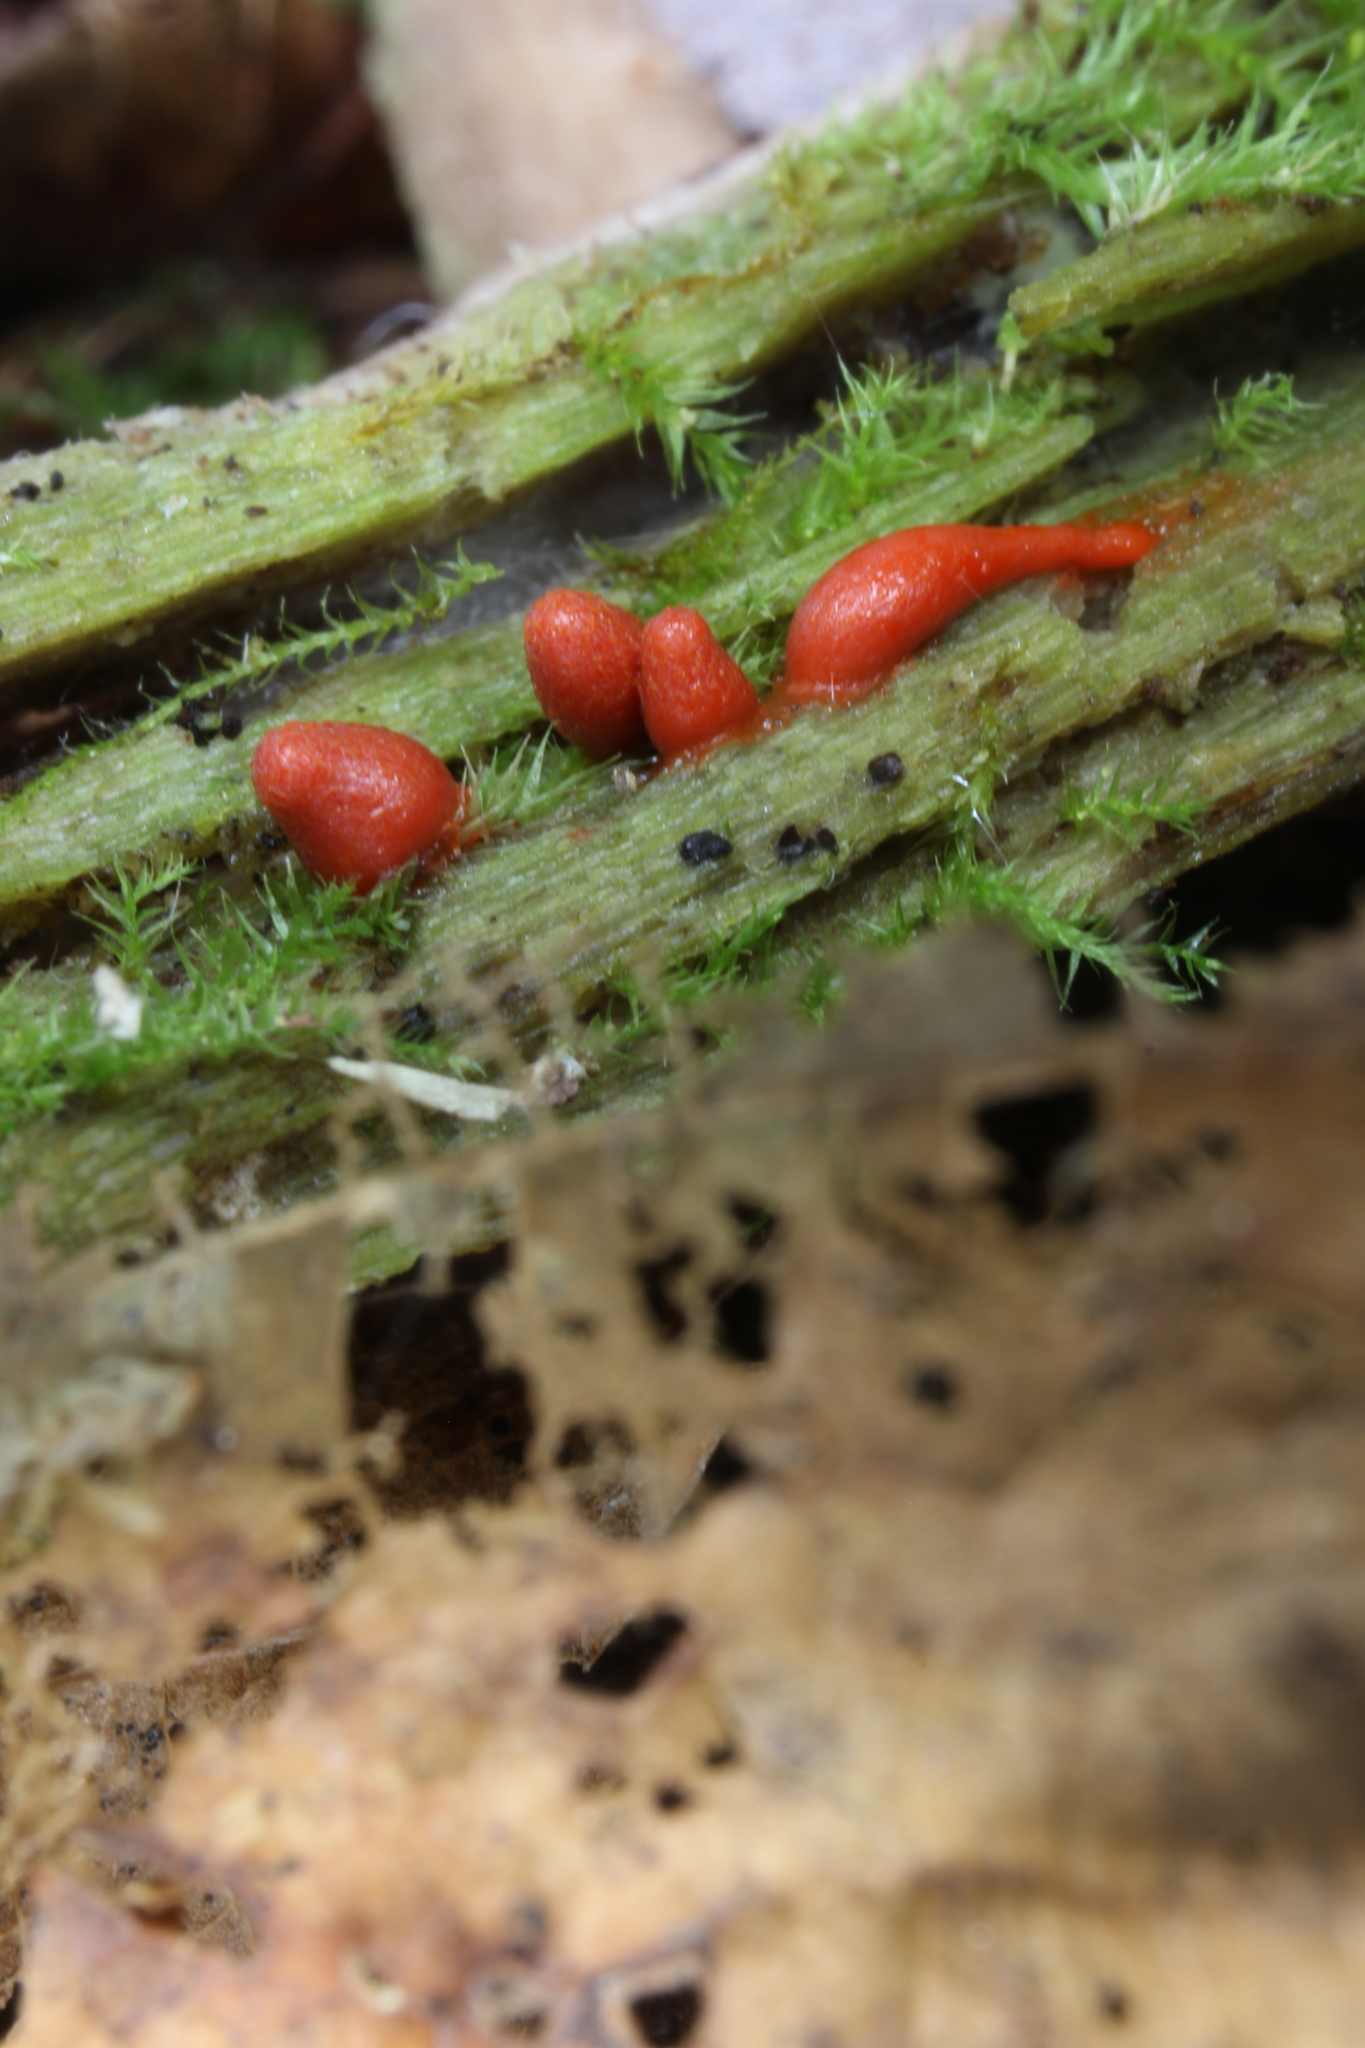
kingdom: Protozoa
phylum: Mycetozoa
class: Myxomycetes
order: Cribrariales
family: Tubiferaceae
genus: Lycogala
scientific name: Lycogala conicum
